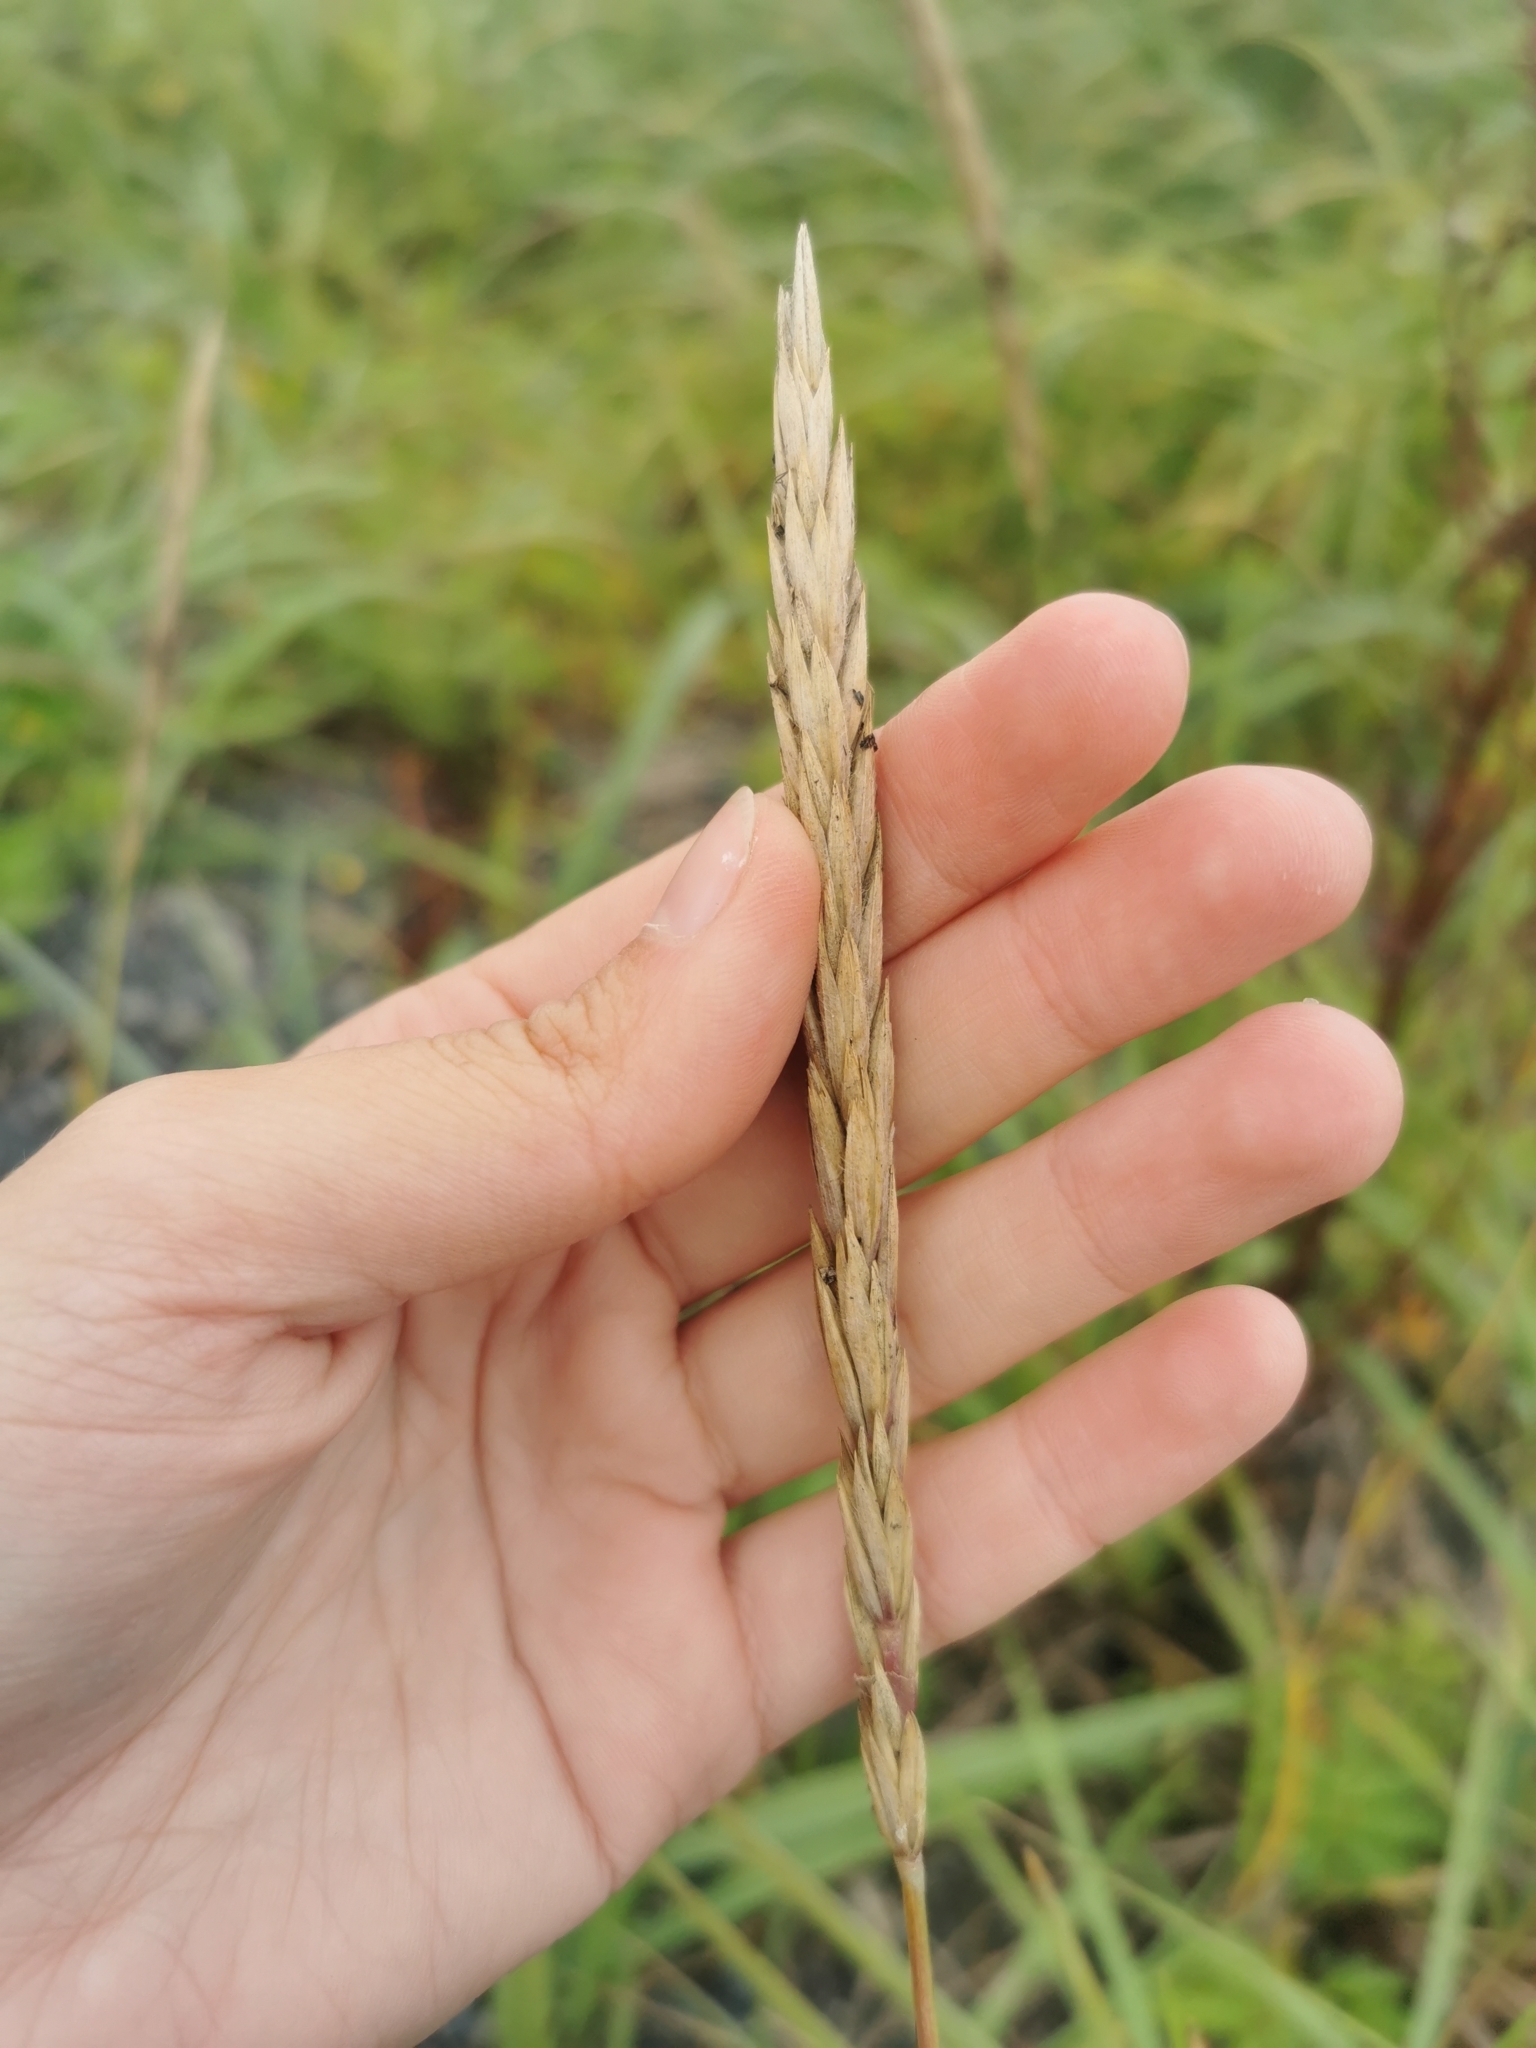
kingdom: Plantae
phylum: Tracheophyta
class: Liliopsida
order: Poales
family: Poaceae
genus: Leymus
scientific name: Leymus mollis
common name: American dune grass
